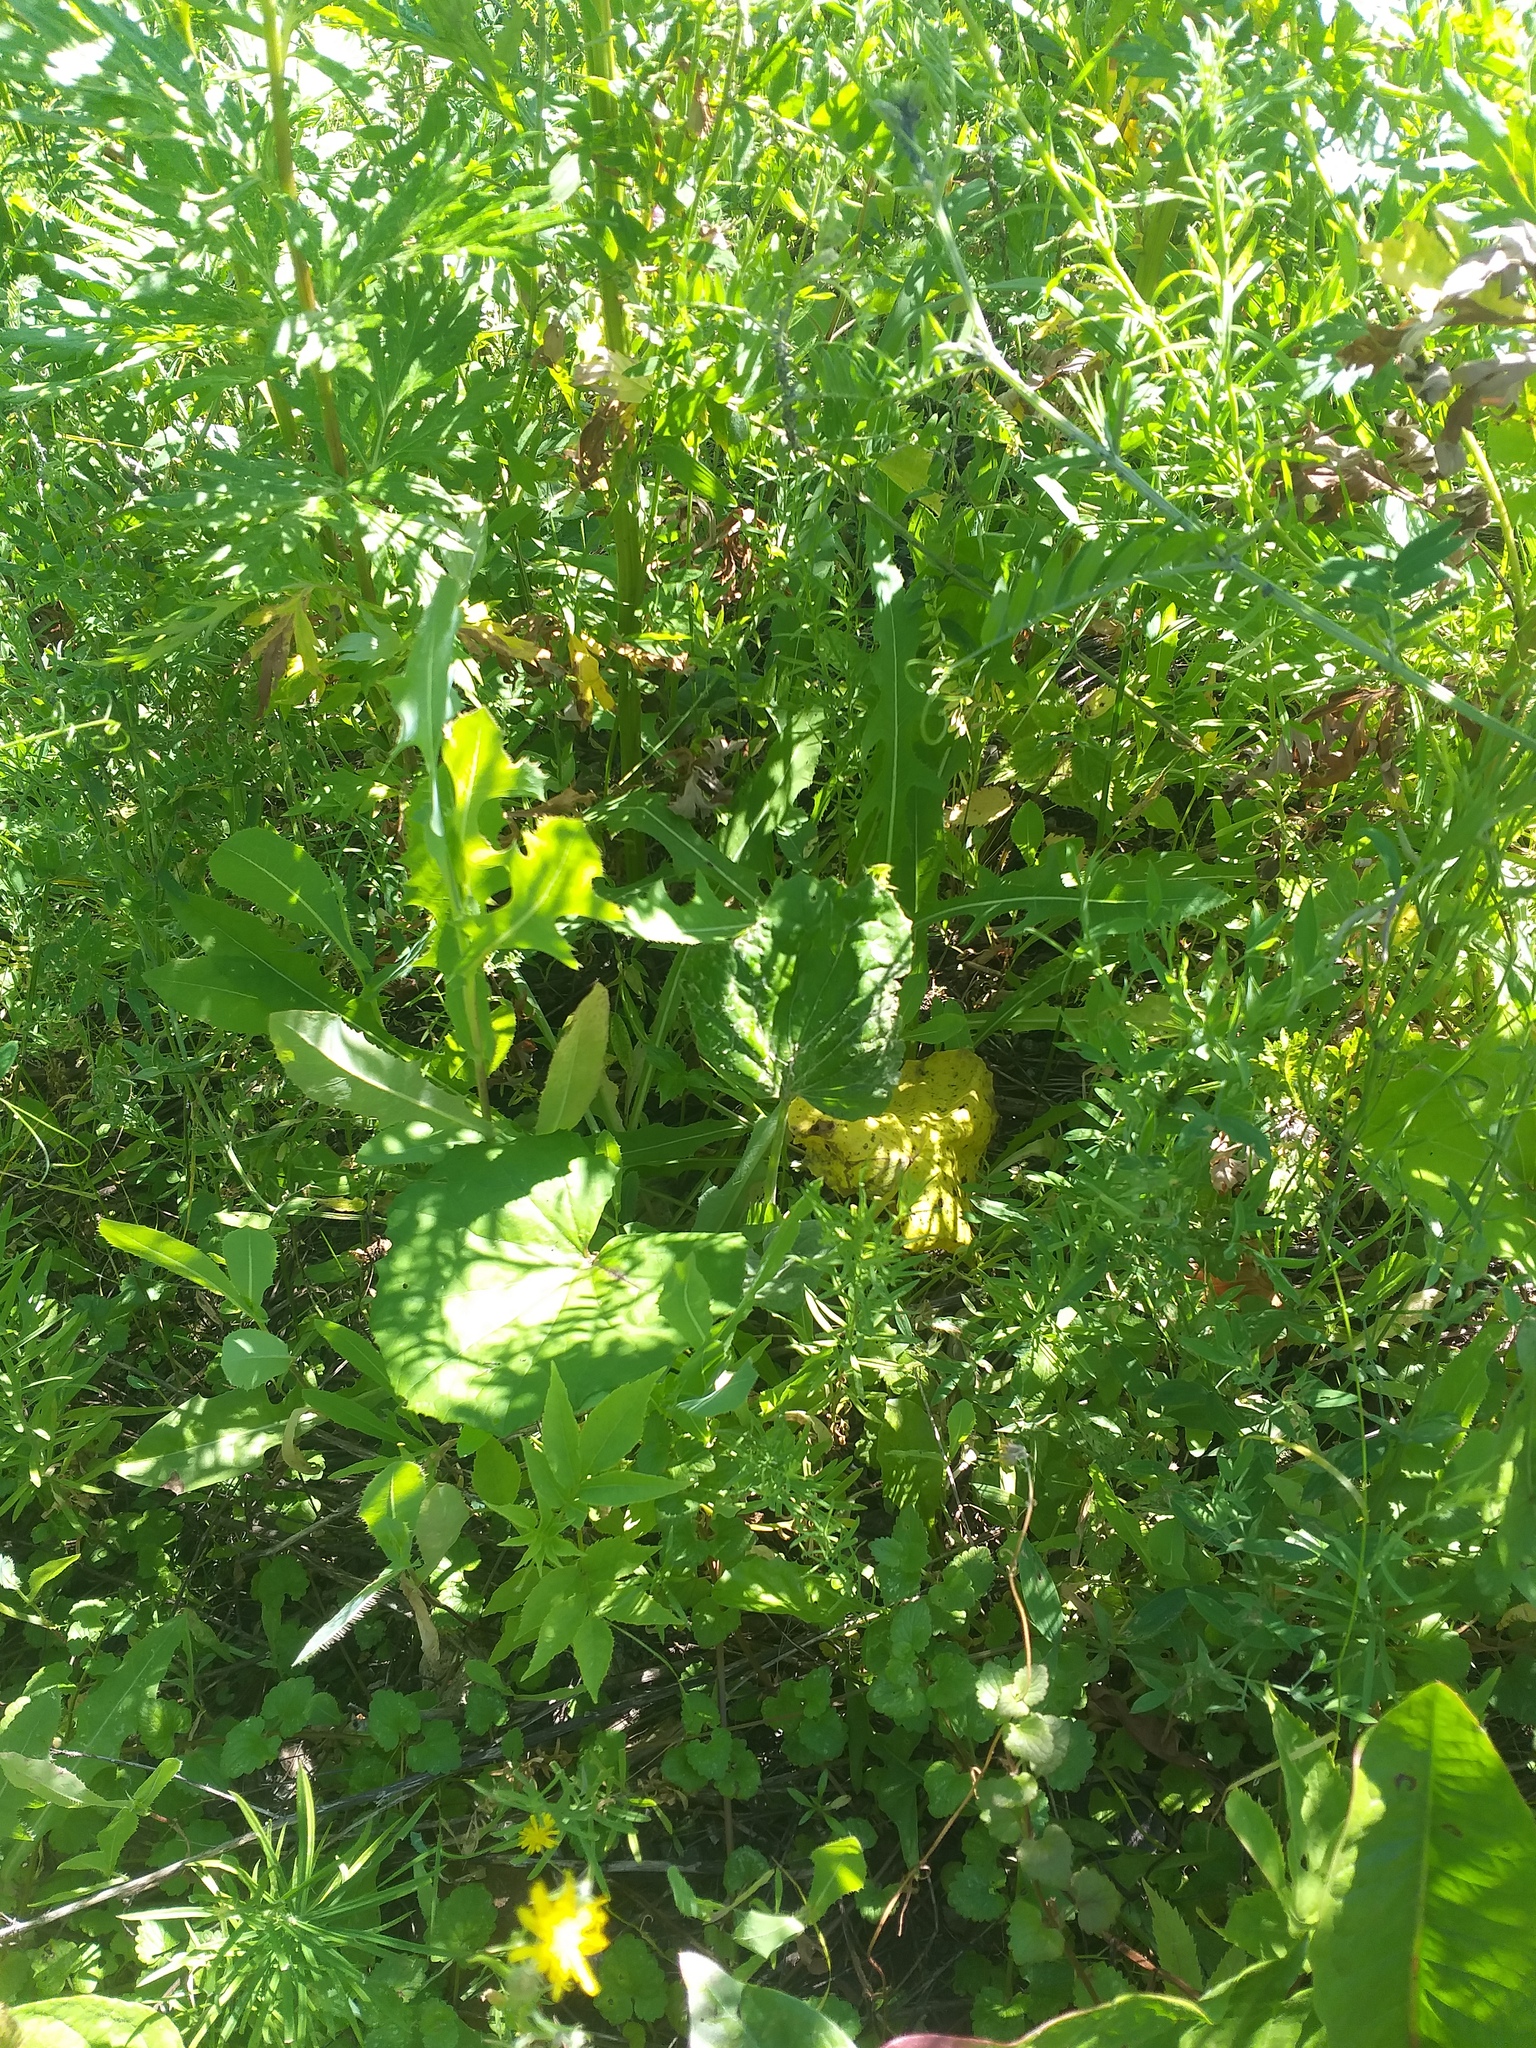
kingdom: Plantae
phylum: Tracheophyta
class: Magnoliopsida
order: Asterales
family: Asteraceae
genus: Lactuca
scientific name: Lactuca serriola
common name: Prickly lettuce
